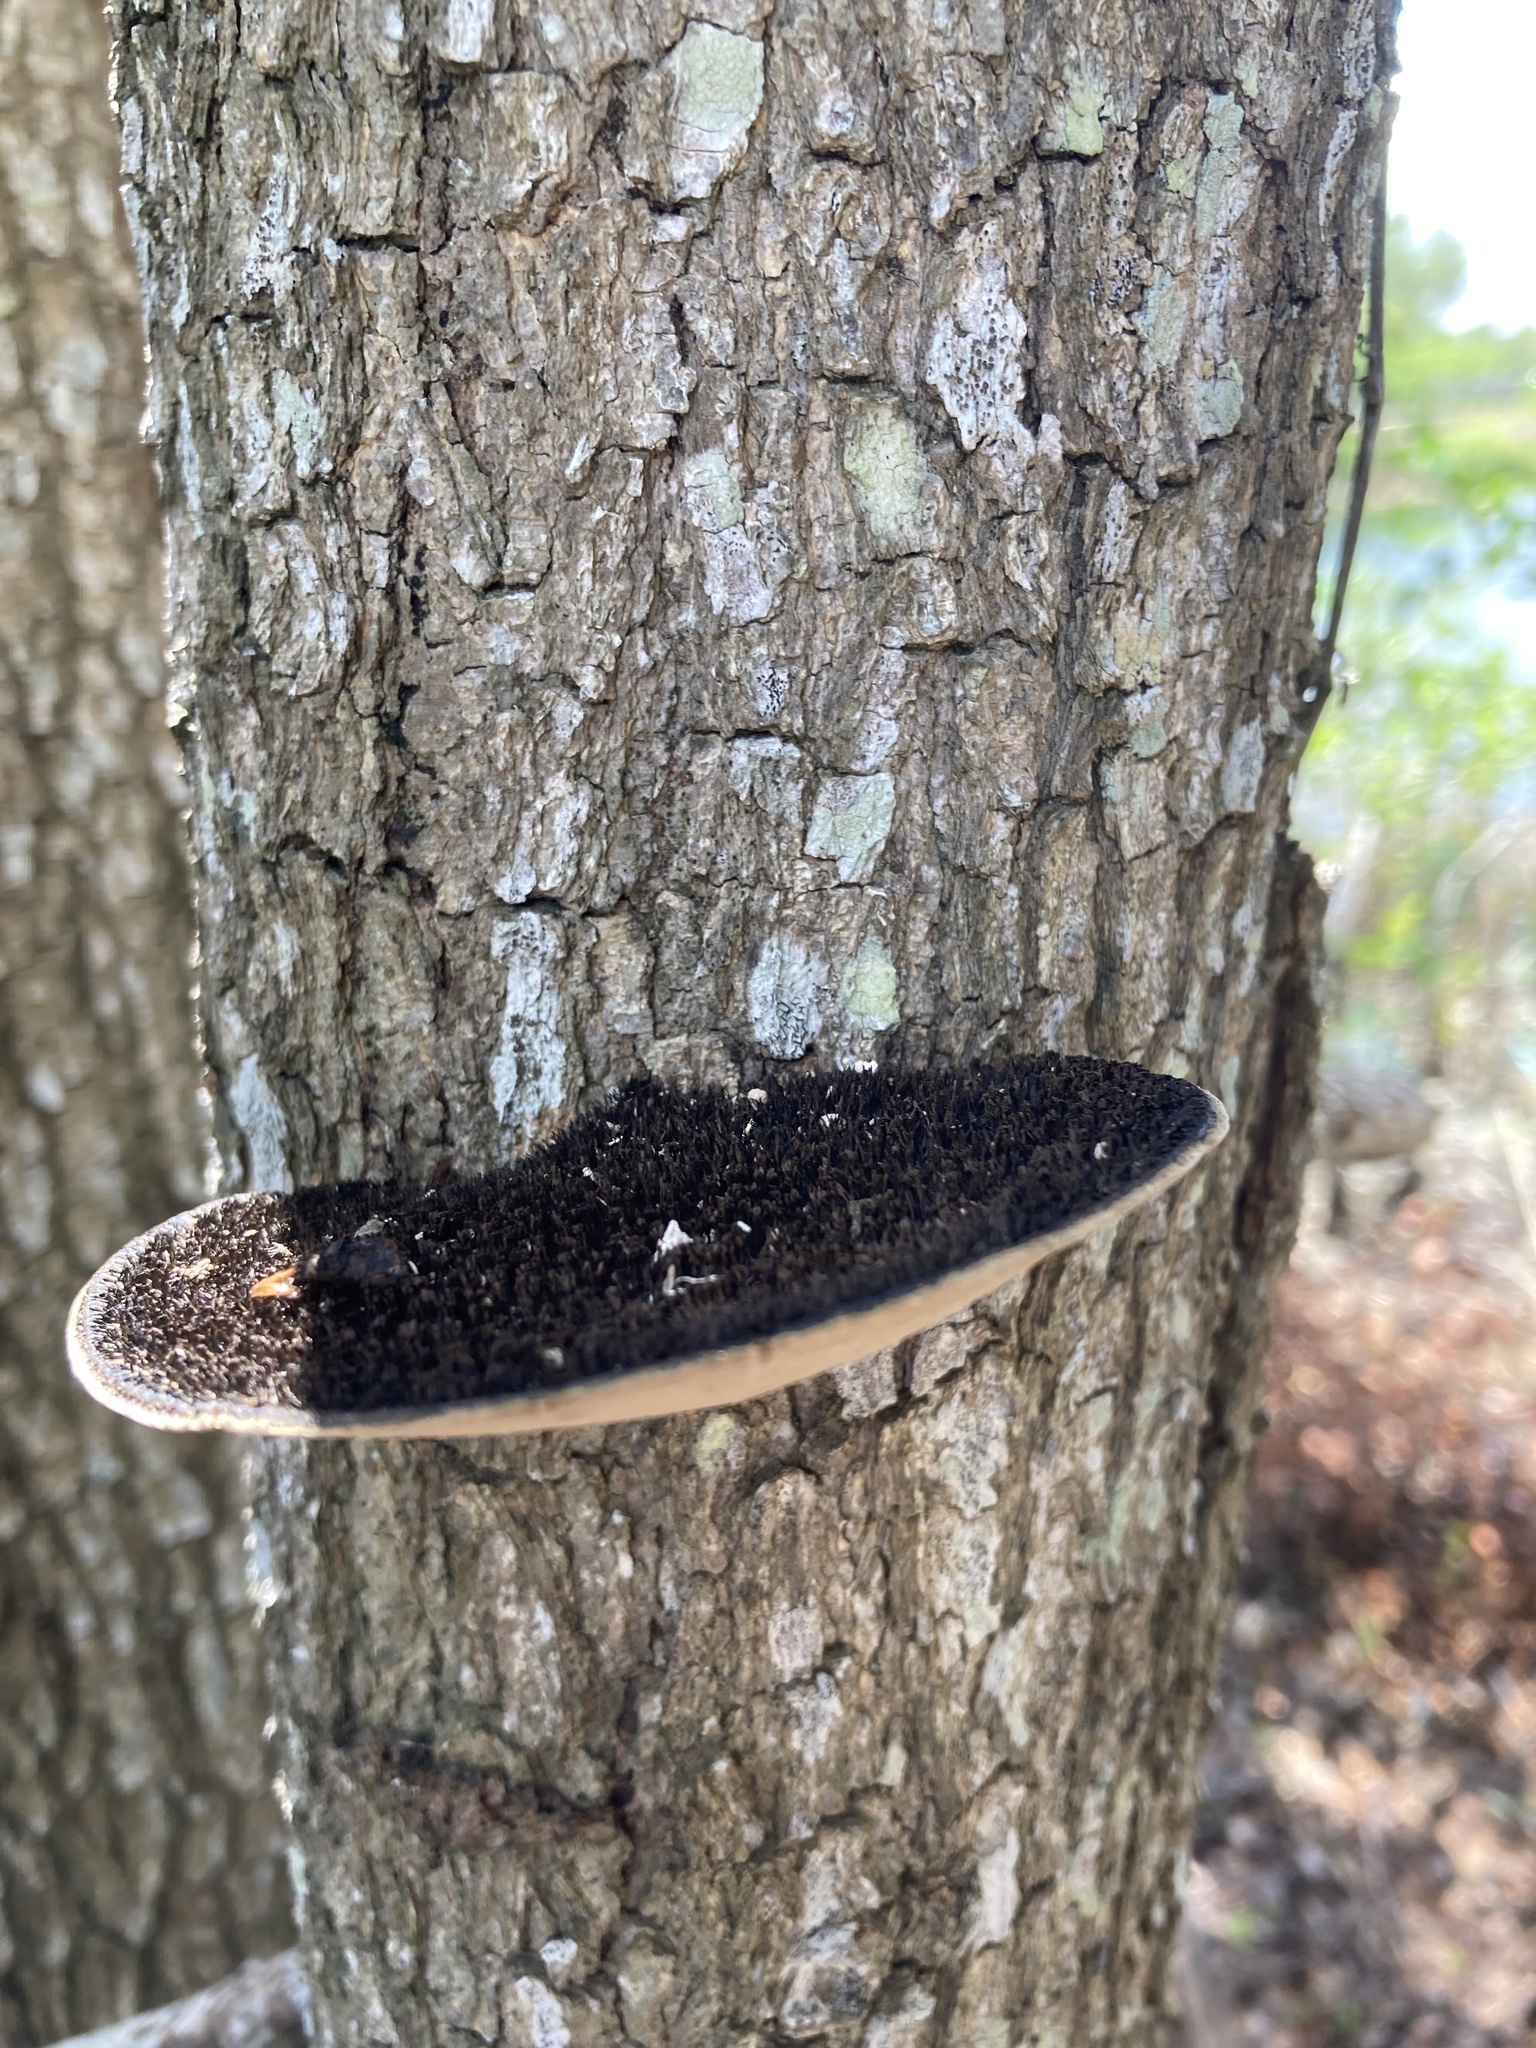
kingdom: Fungi
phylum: Basidiomycota
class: Agaricomycetes
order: Polyporales
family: Cerrenaceae
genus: Cerrena
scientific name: Cerrena hydnoides
